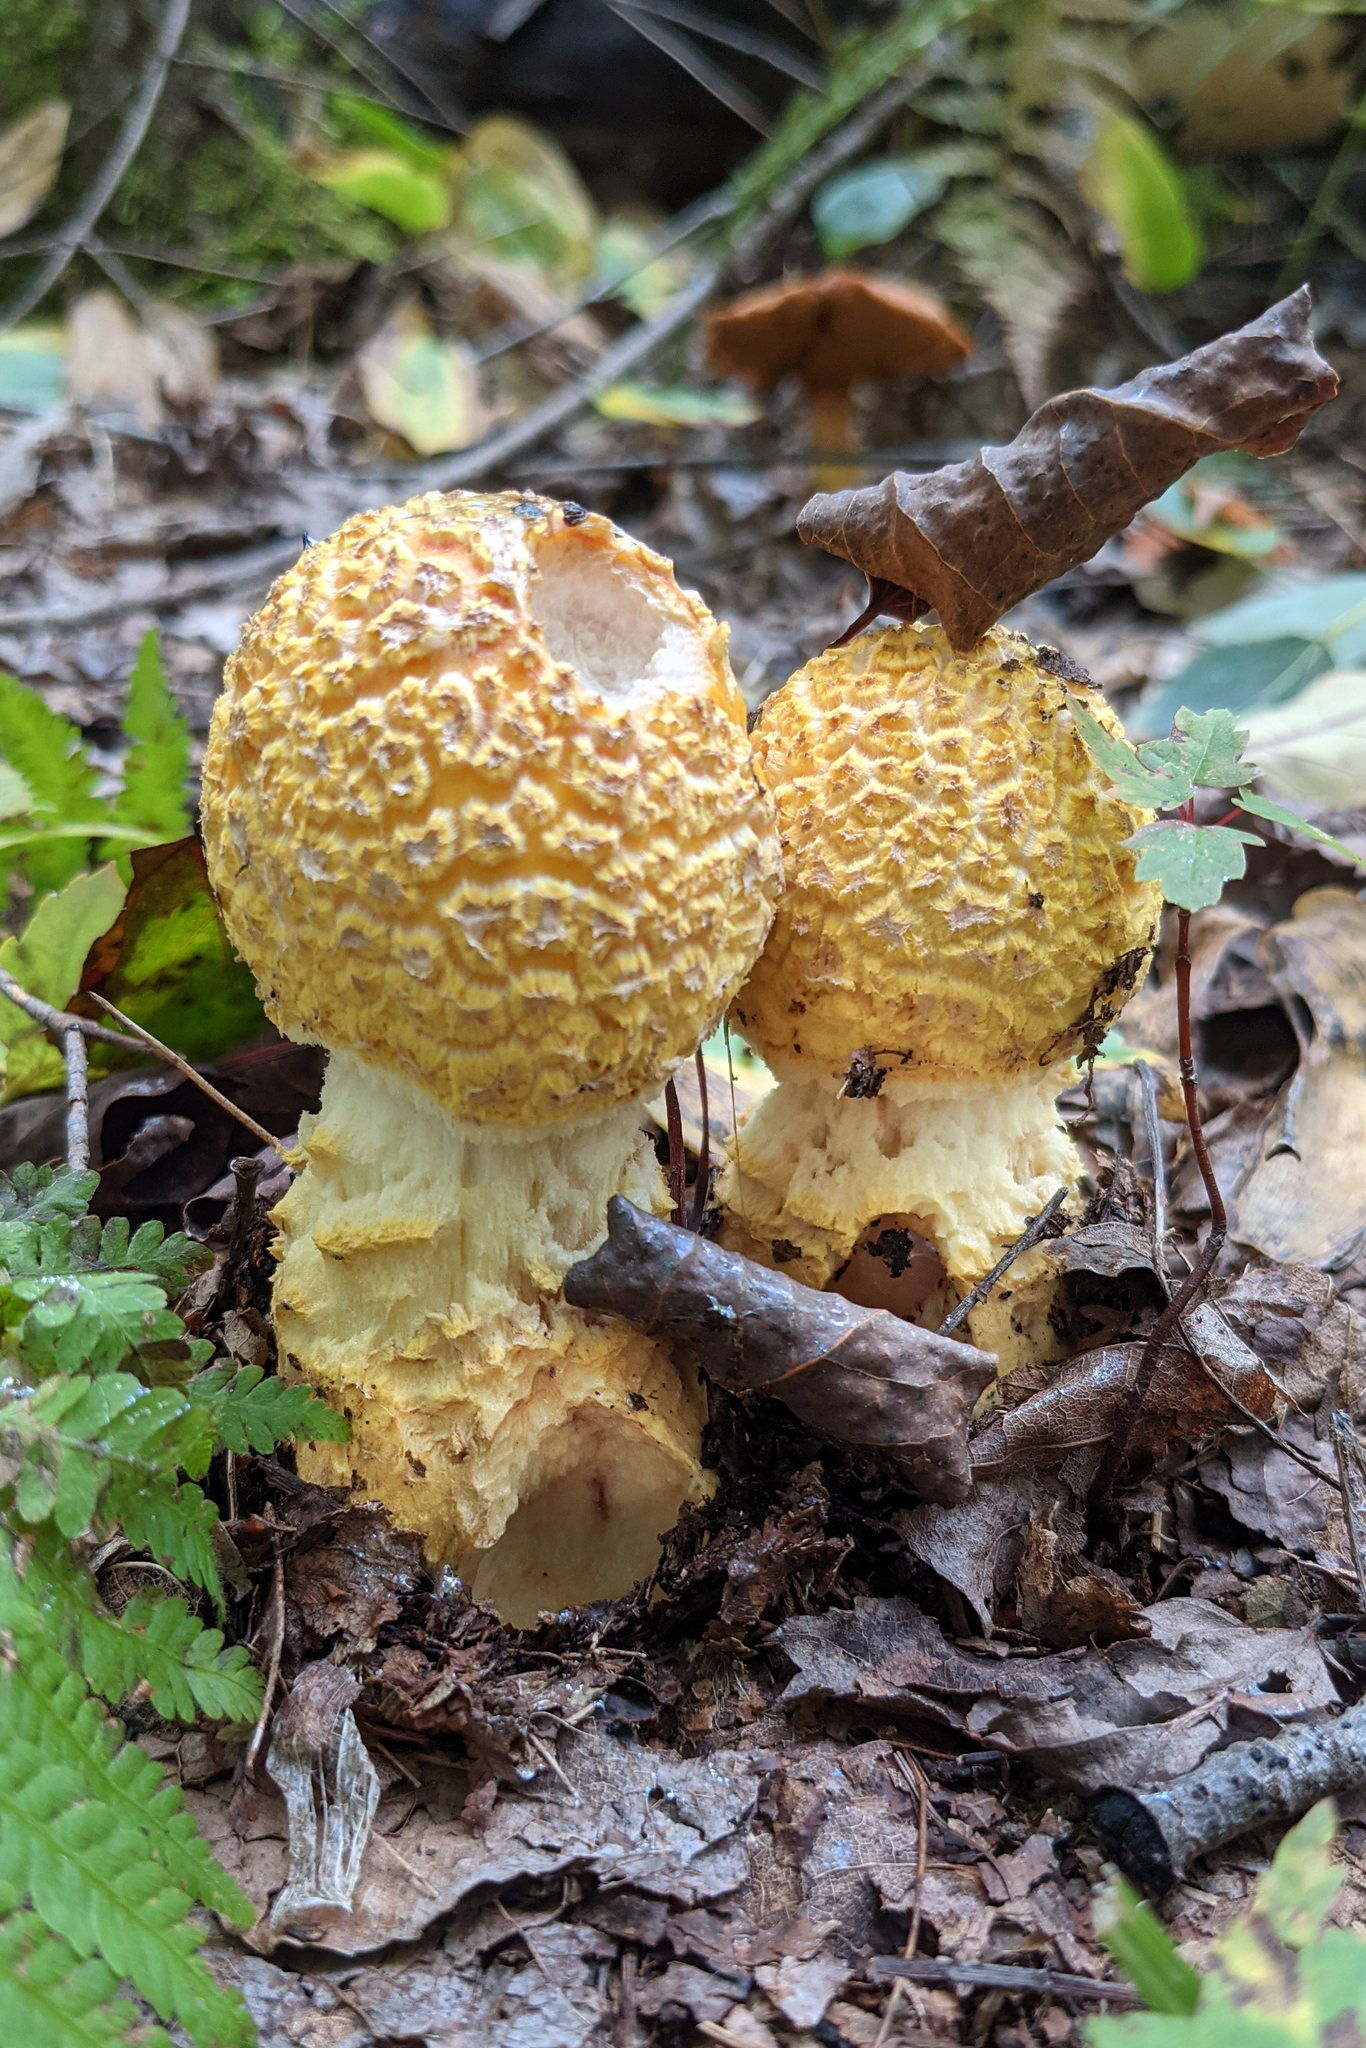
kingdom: Fungi
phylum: Basidiomycota
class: Agaricomycetes
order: Agaricales
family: Amanitaceae
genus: Amanita
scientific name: Amanita muscaria
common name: Fly agaric
